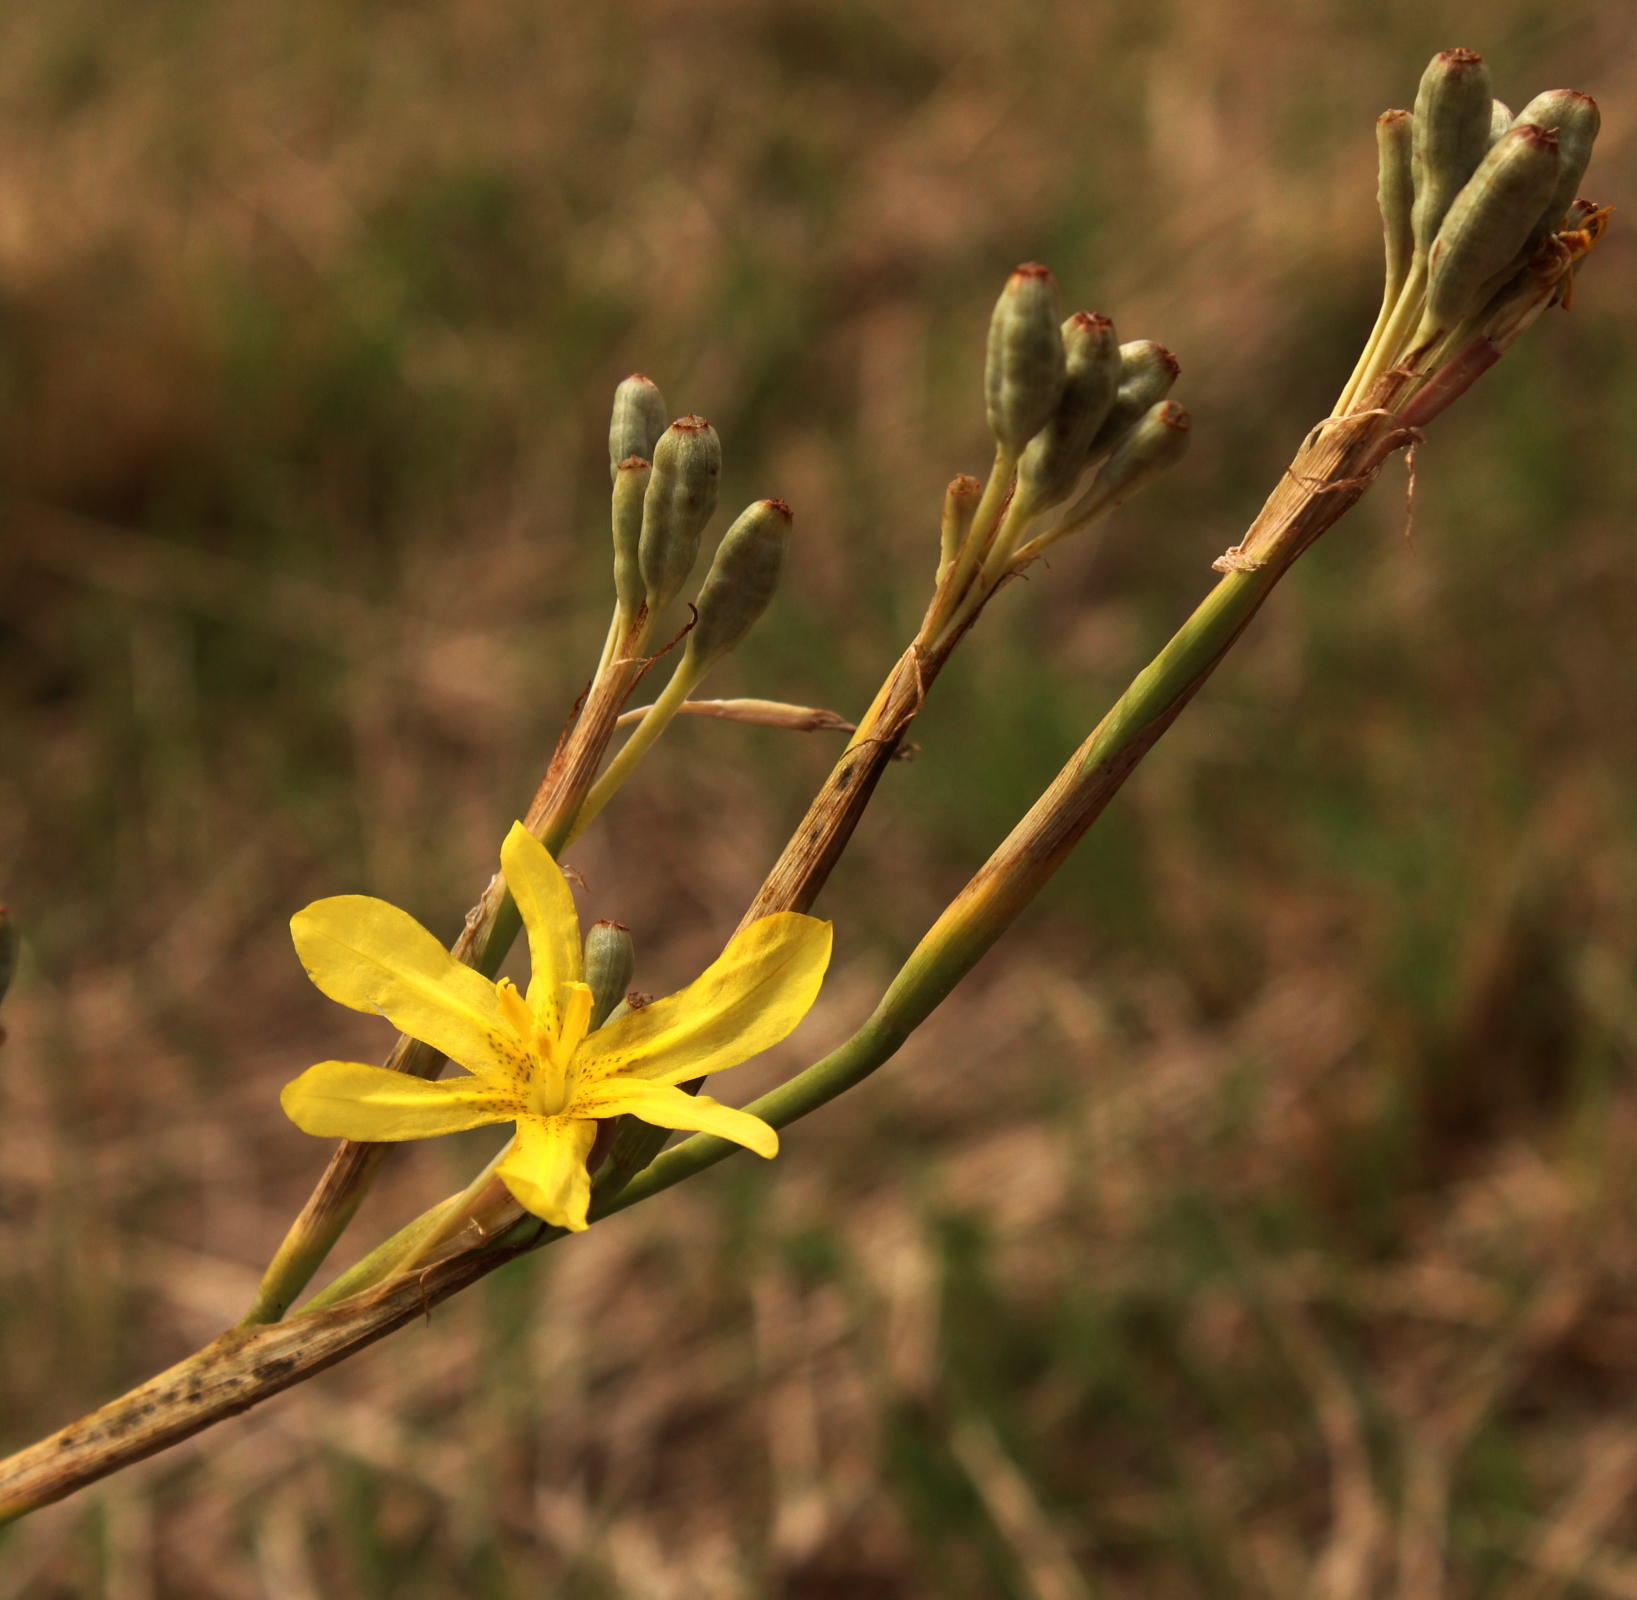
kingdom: Plantae
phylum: Tracheophyta
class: Liliopsida
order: Asparagales
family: Iridaceae
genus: Moraea
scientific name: Moraea pallida
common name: Yellow tulp
